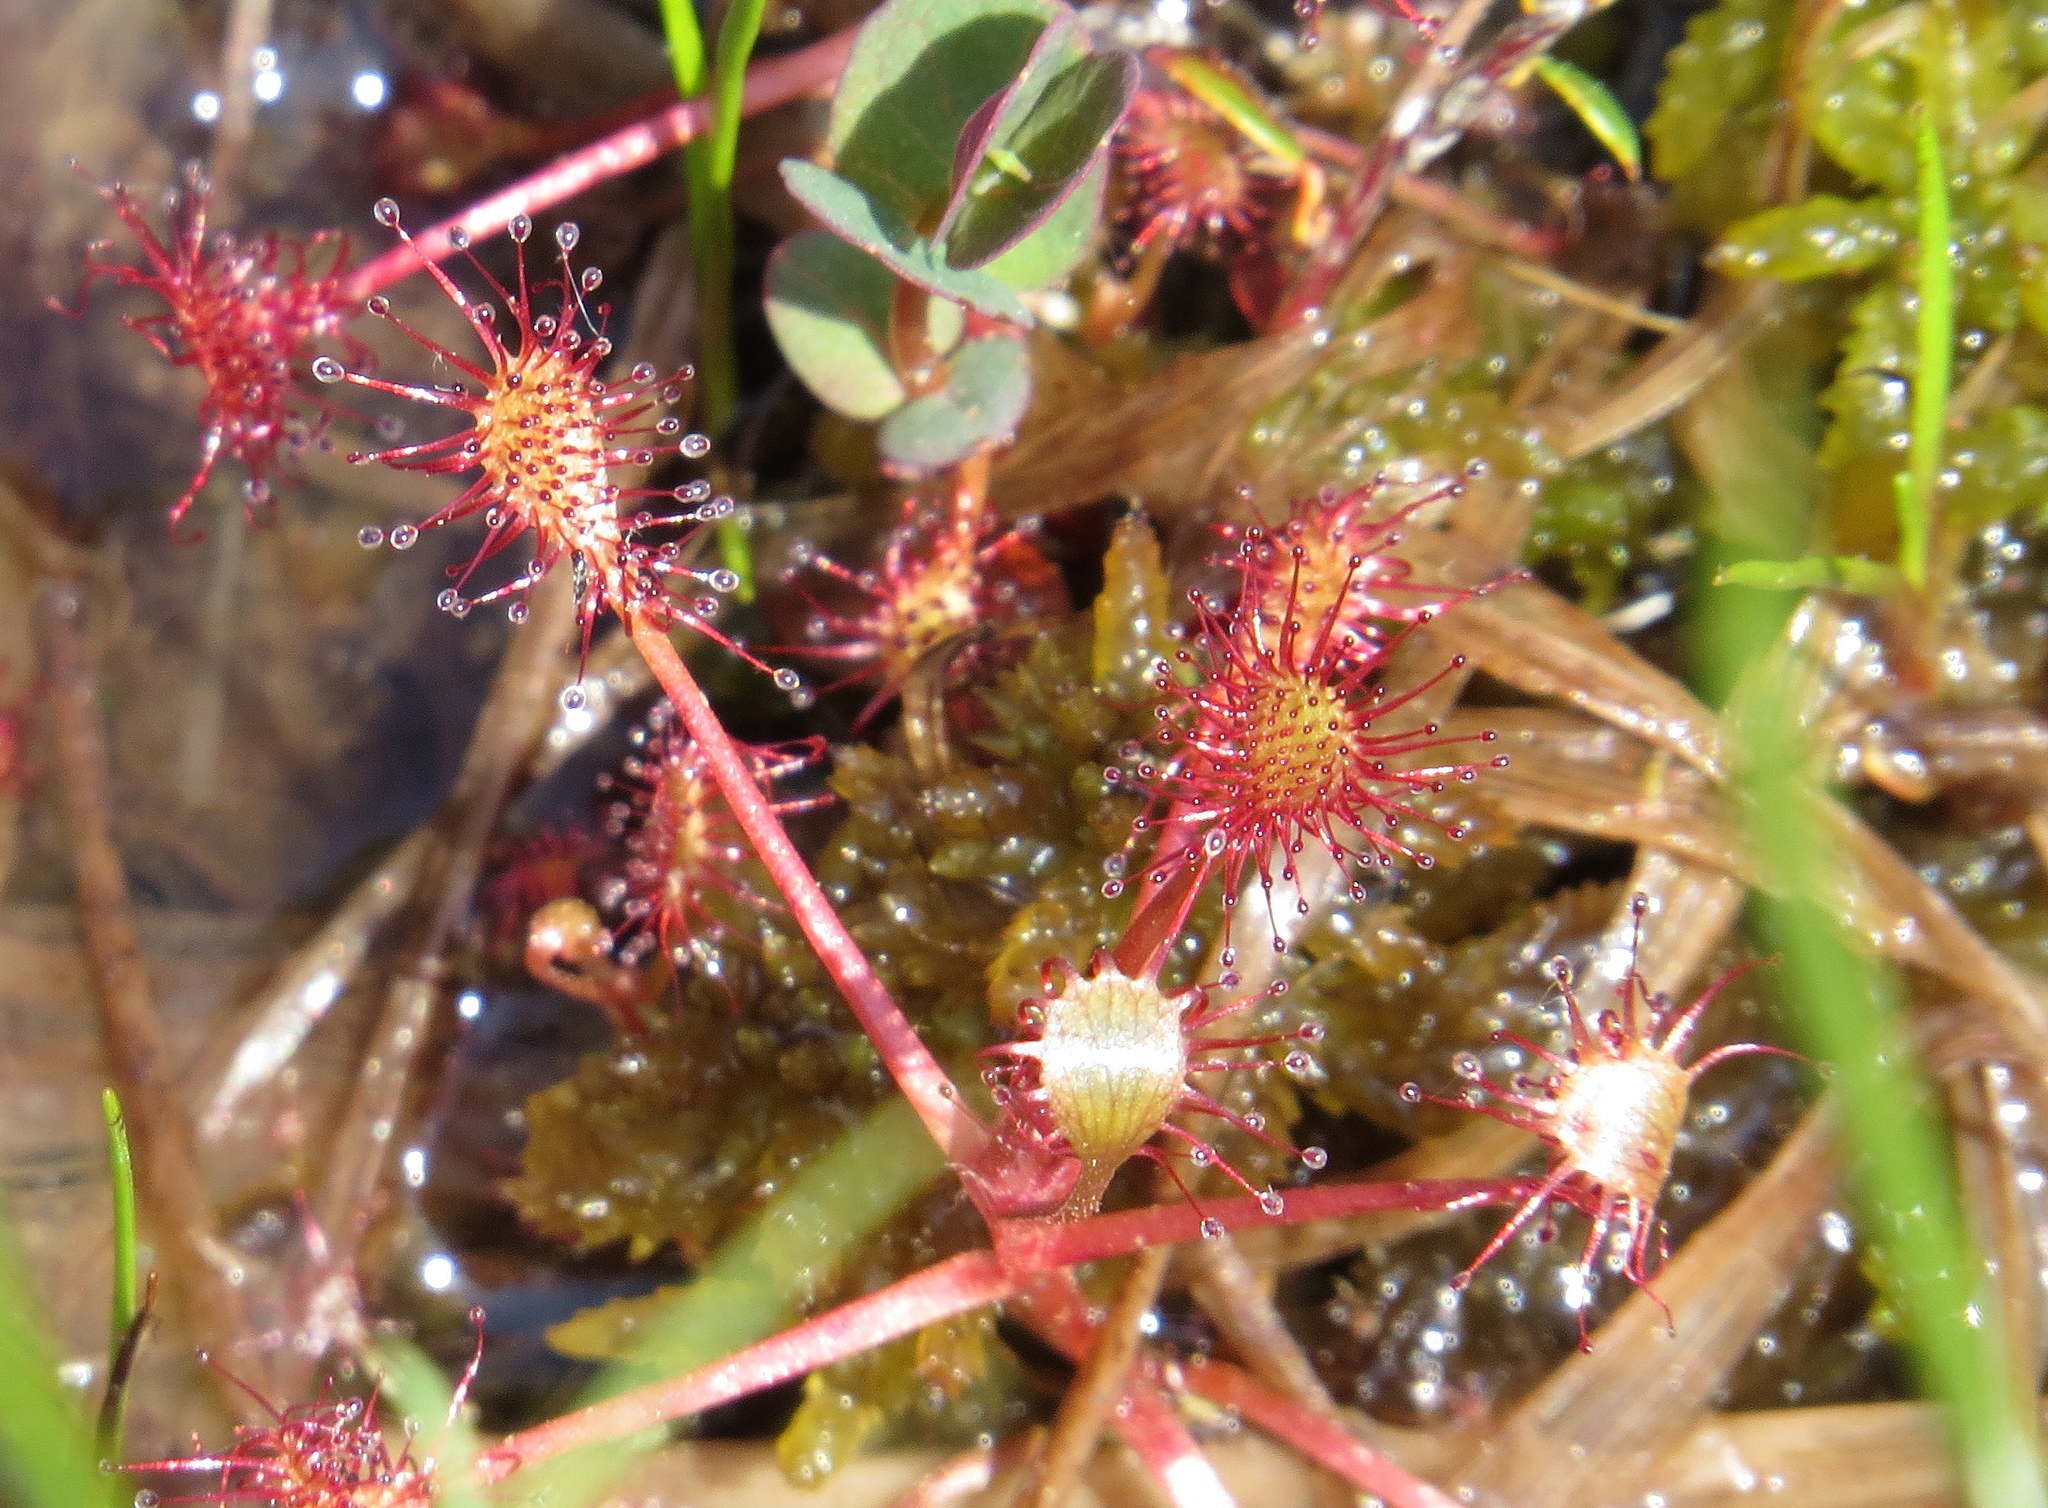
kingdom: Plantae
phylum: Tracheophyta
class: Magnoliopsida
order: Caryophyllales
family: Droseraceae
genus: Drosera
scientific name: Drosera intermedia
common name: Oblong-leaved sundew
